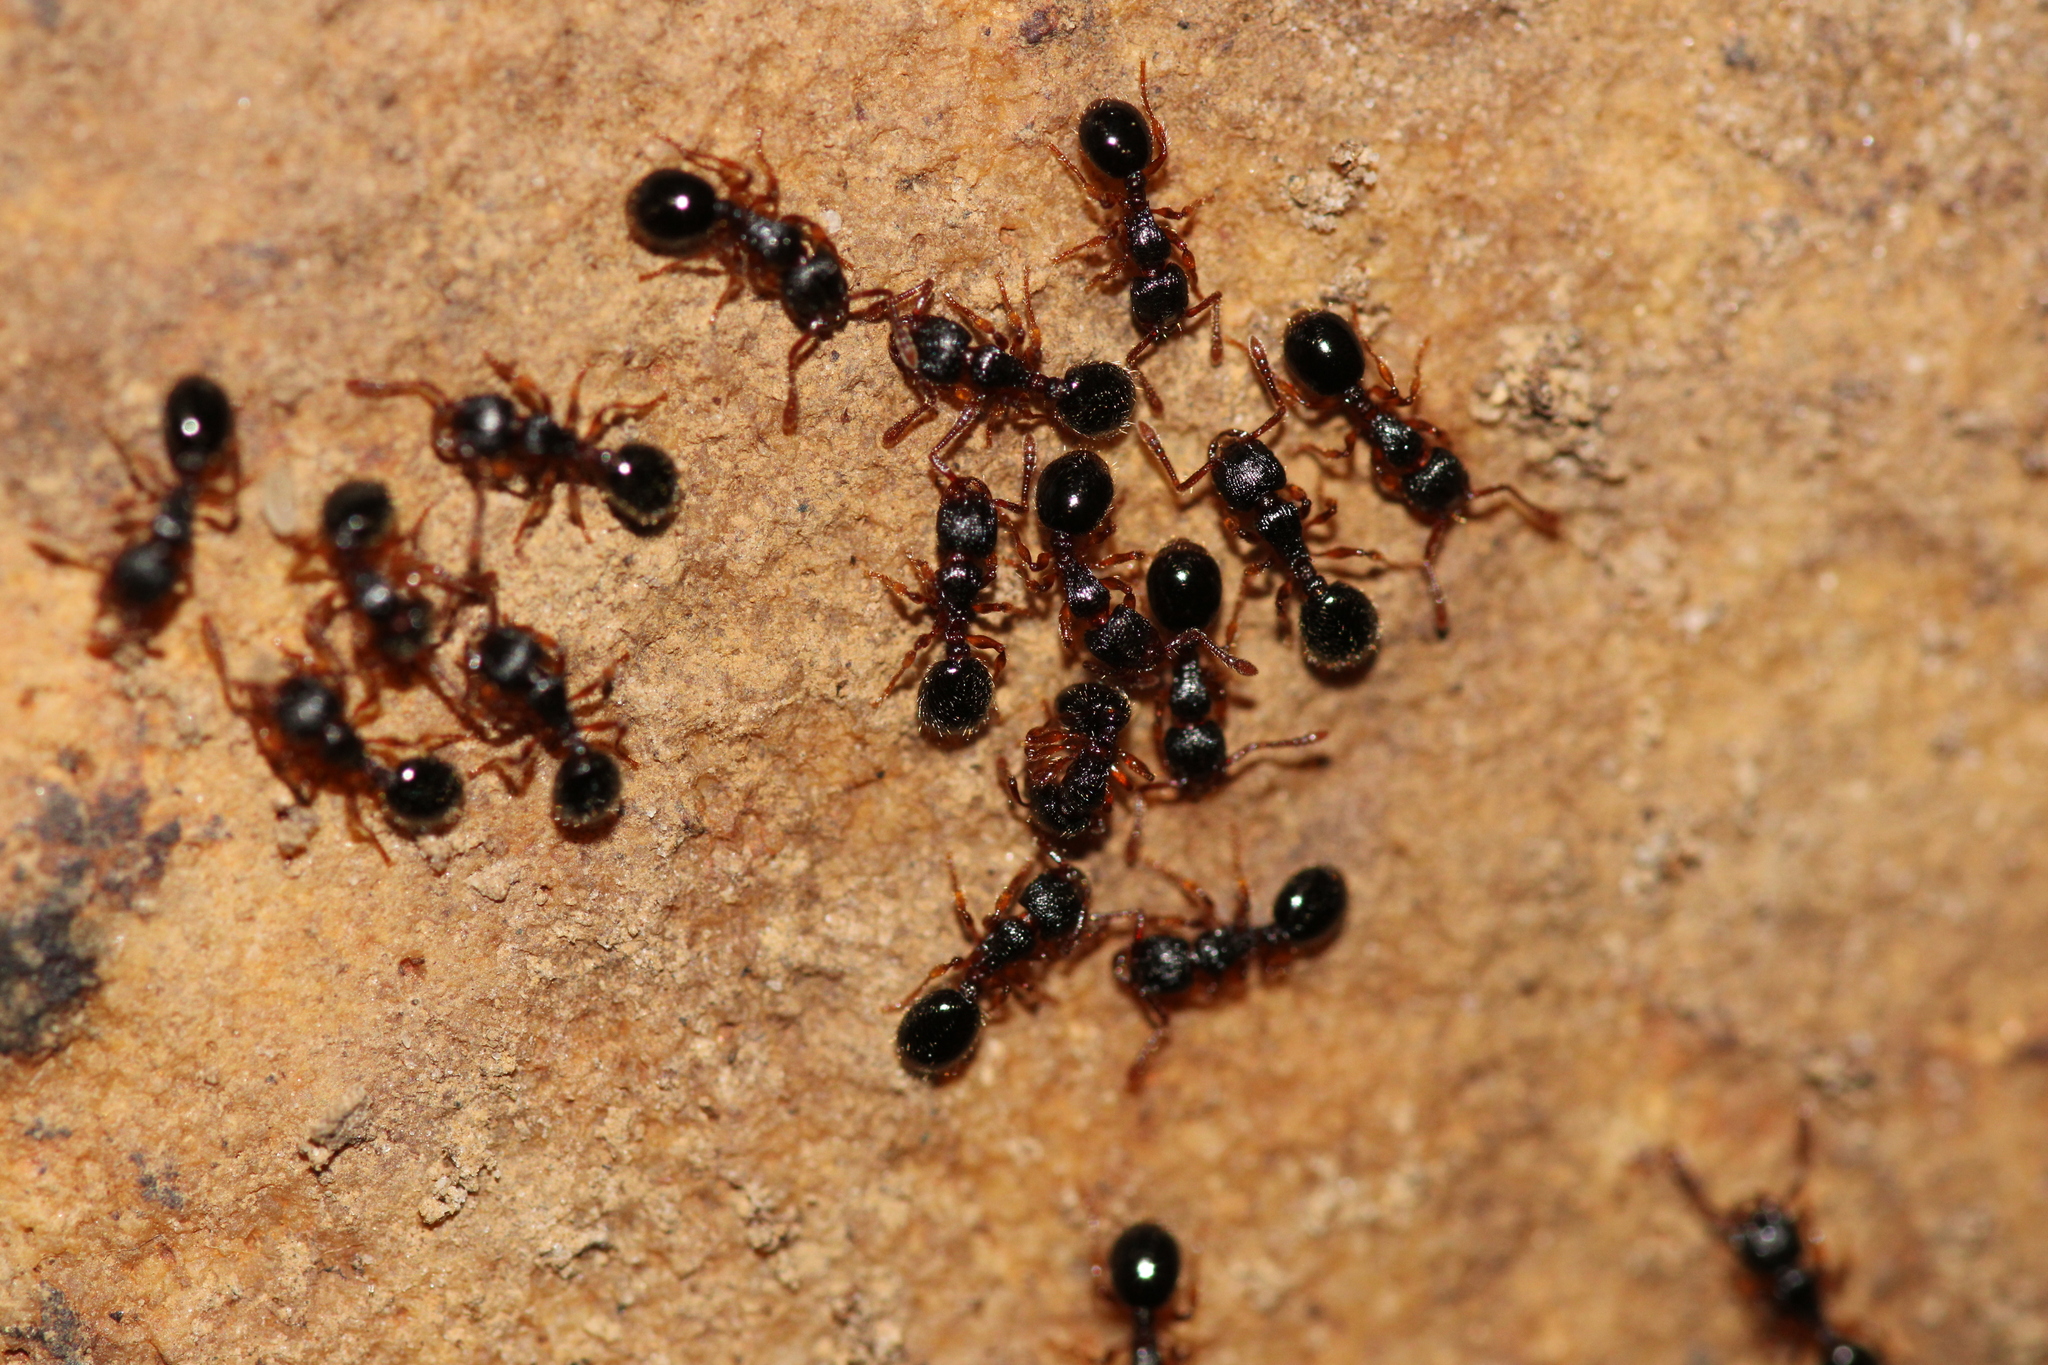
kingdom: Animalia
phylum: Arthropoda
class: Insecta
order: Hymenoptera
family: Formicidae
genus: Myrmecina
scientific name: Myrmecina graminicola
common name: Grass ant
